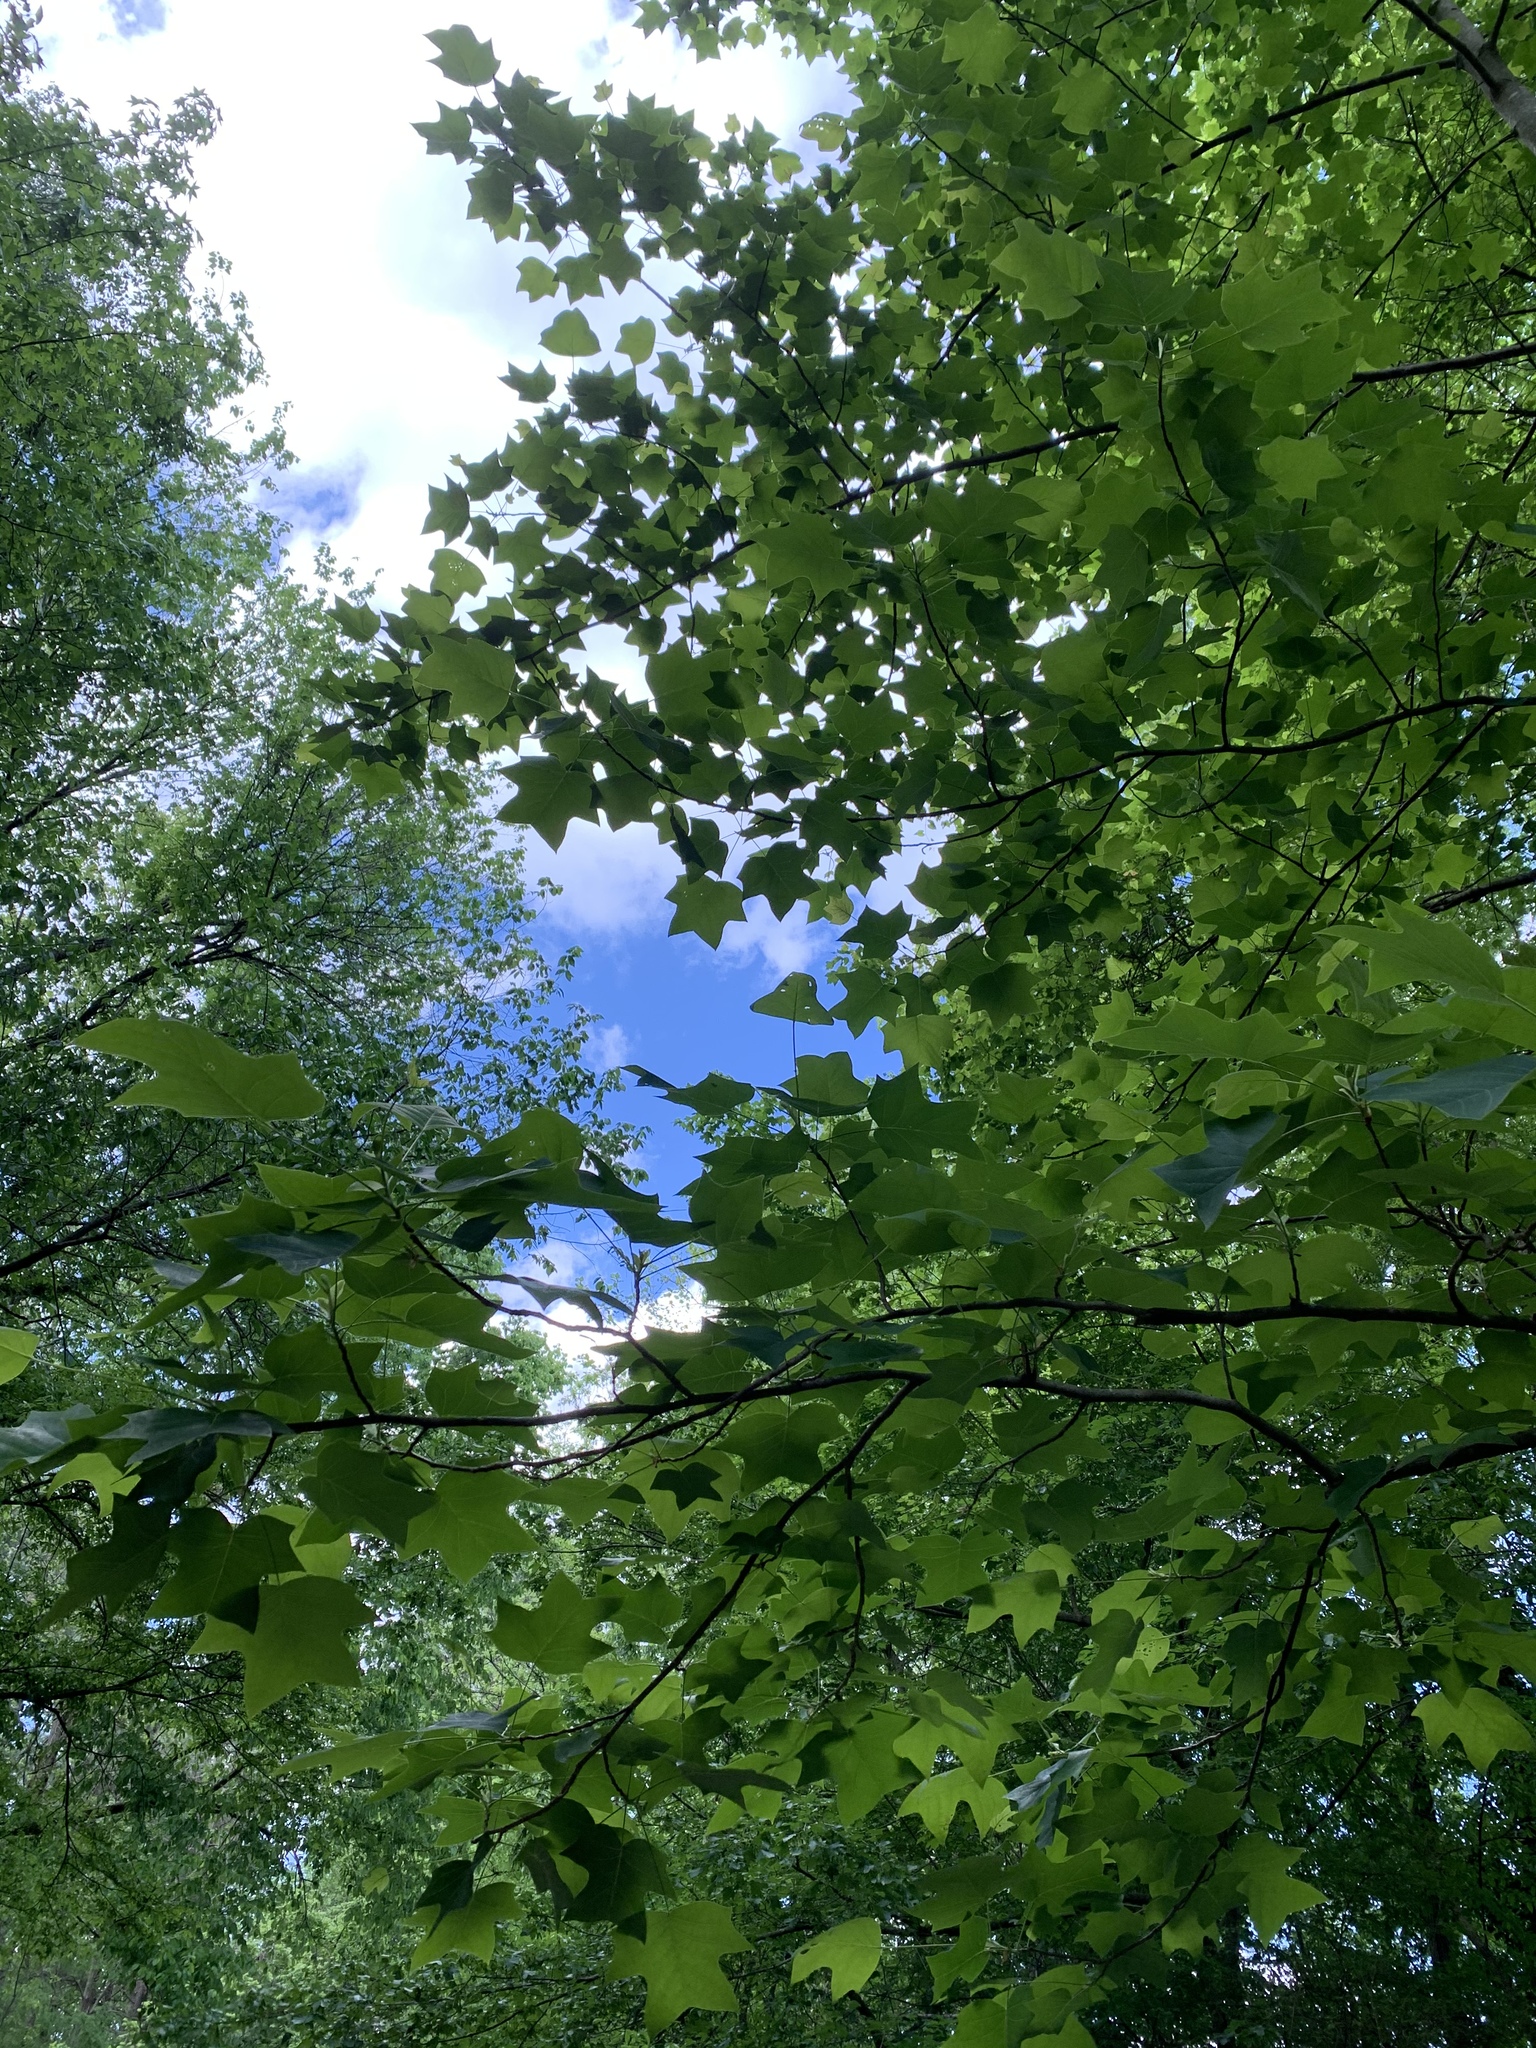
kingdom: Plantae
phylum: Tracheophyta
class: Magnoliopsida
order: Magnoliales
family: Magnoliaceae
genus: Liriodendron
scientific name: Liriodendron tulipifera
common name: Tulip tree
